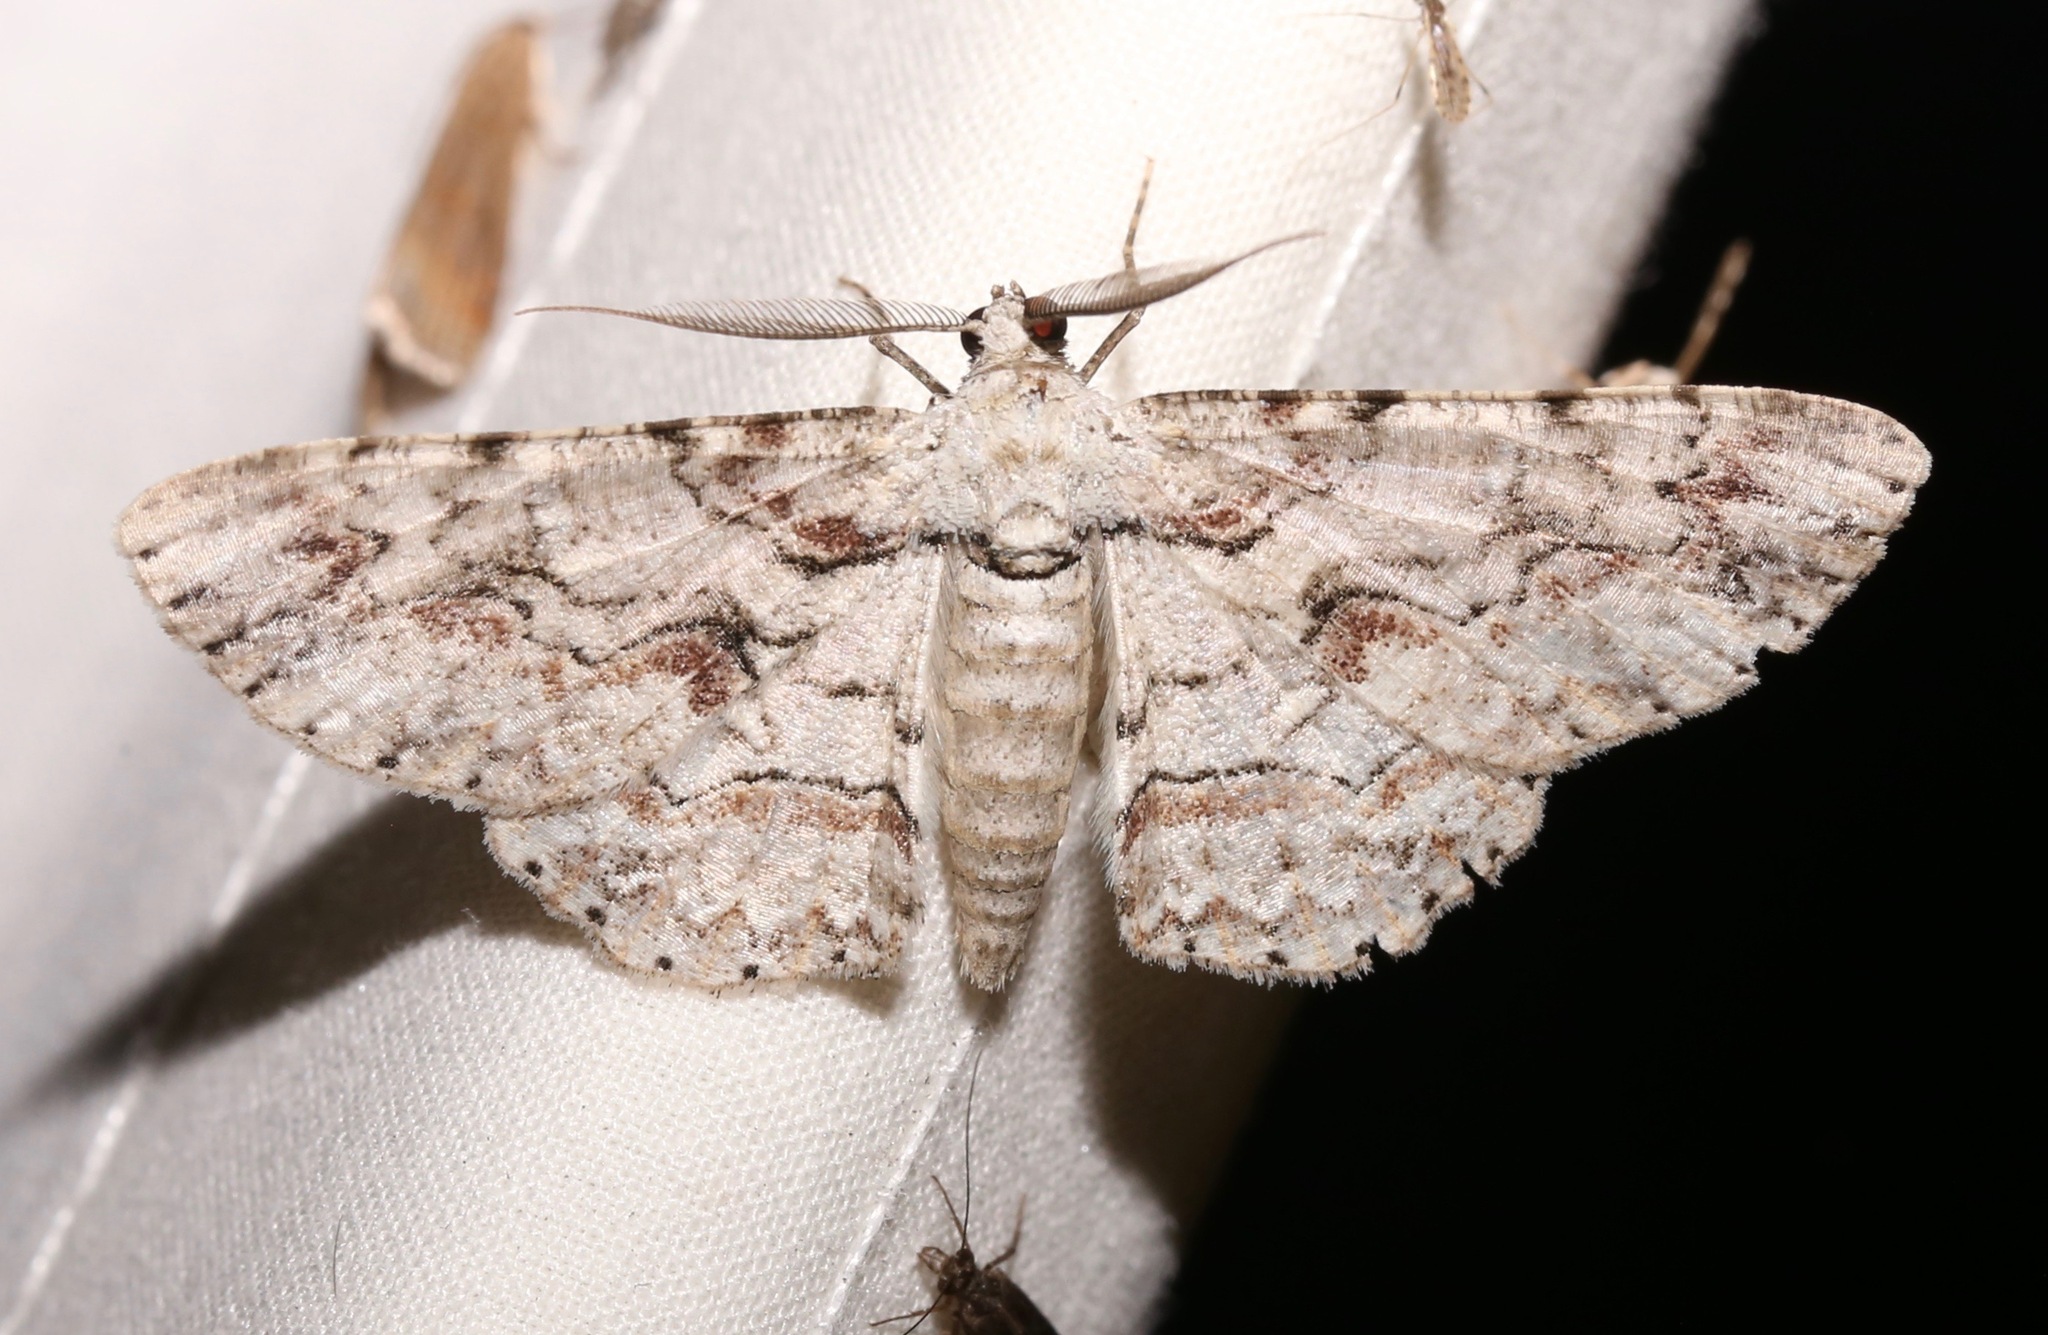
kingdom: Animalia
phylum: Arthropoda
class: Insecta
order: Lepidoptera
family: Geometridae
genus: Iridopsis
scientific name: Iridopsis defectaria
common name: Brown-shaded gray
